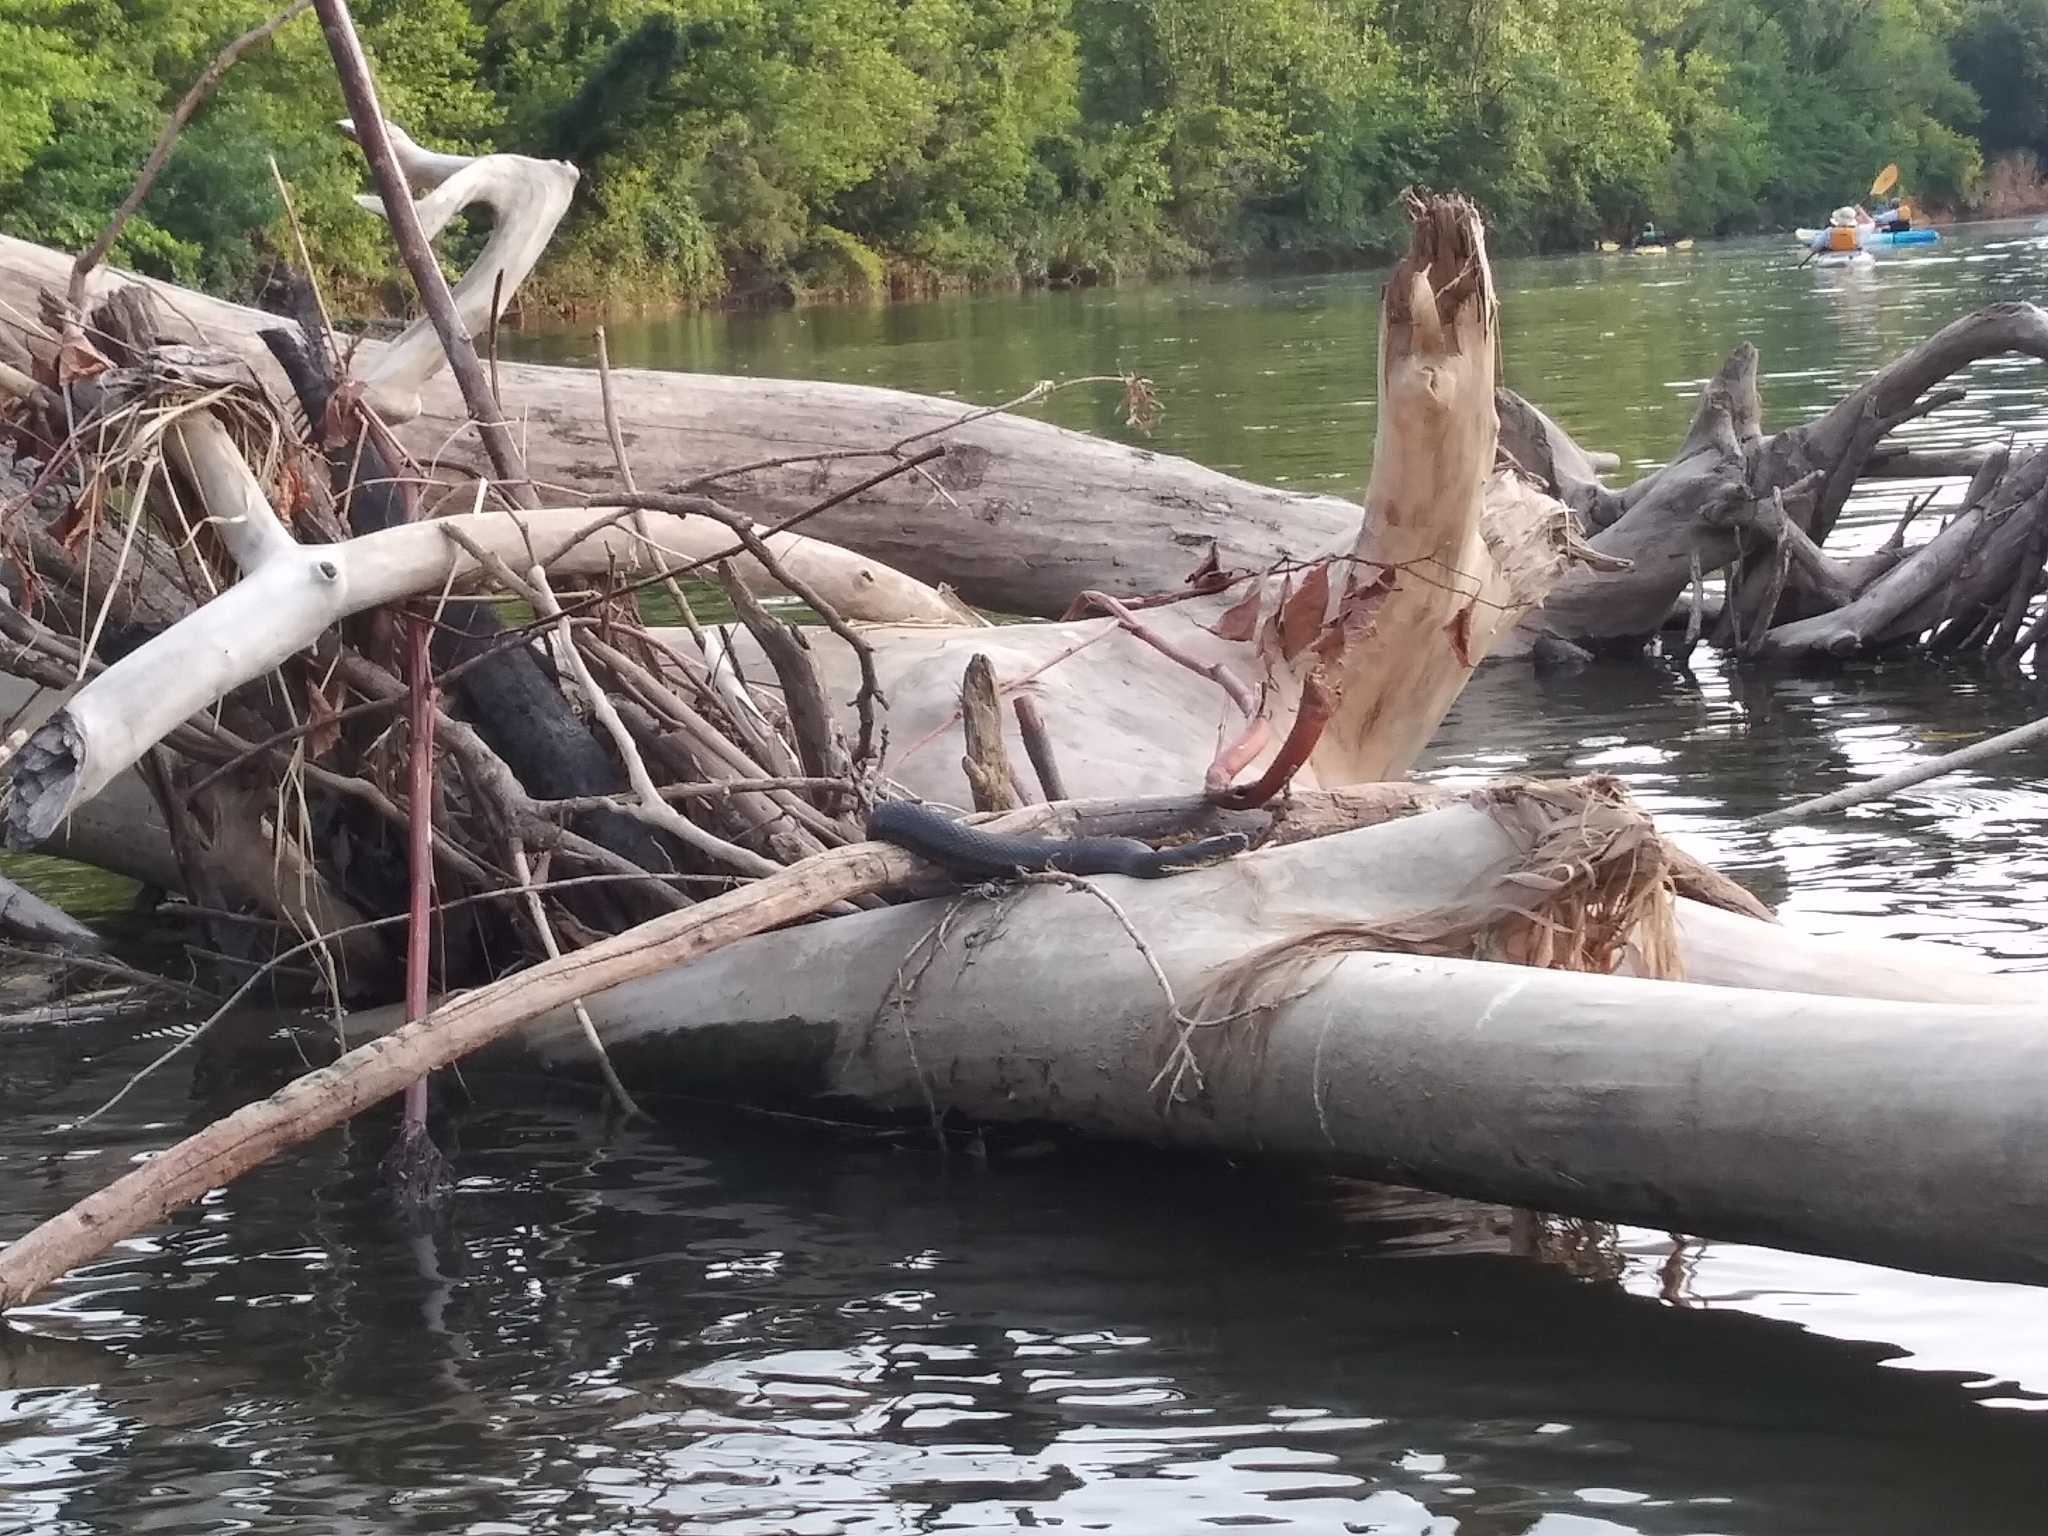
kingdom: Animalia
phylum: Chordata
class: Squamata
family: Colubridae
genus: Nerodia
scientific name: Nerodia sipedon
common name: Northern water snake
